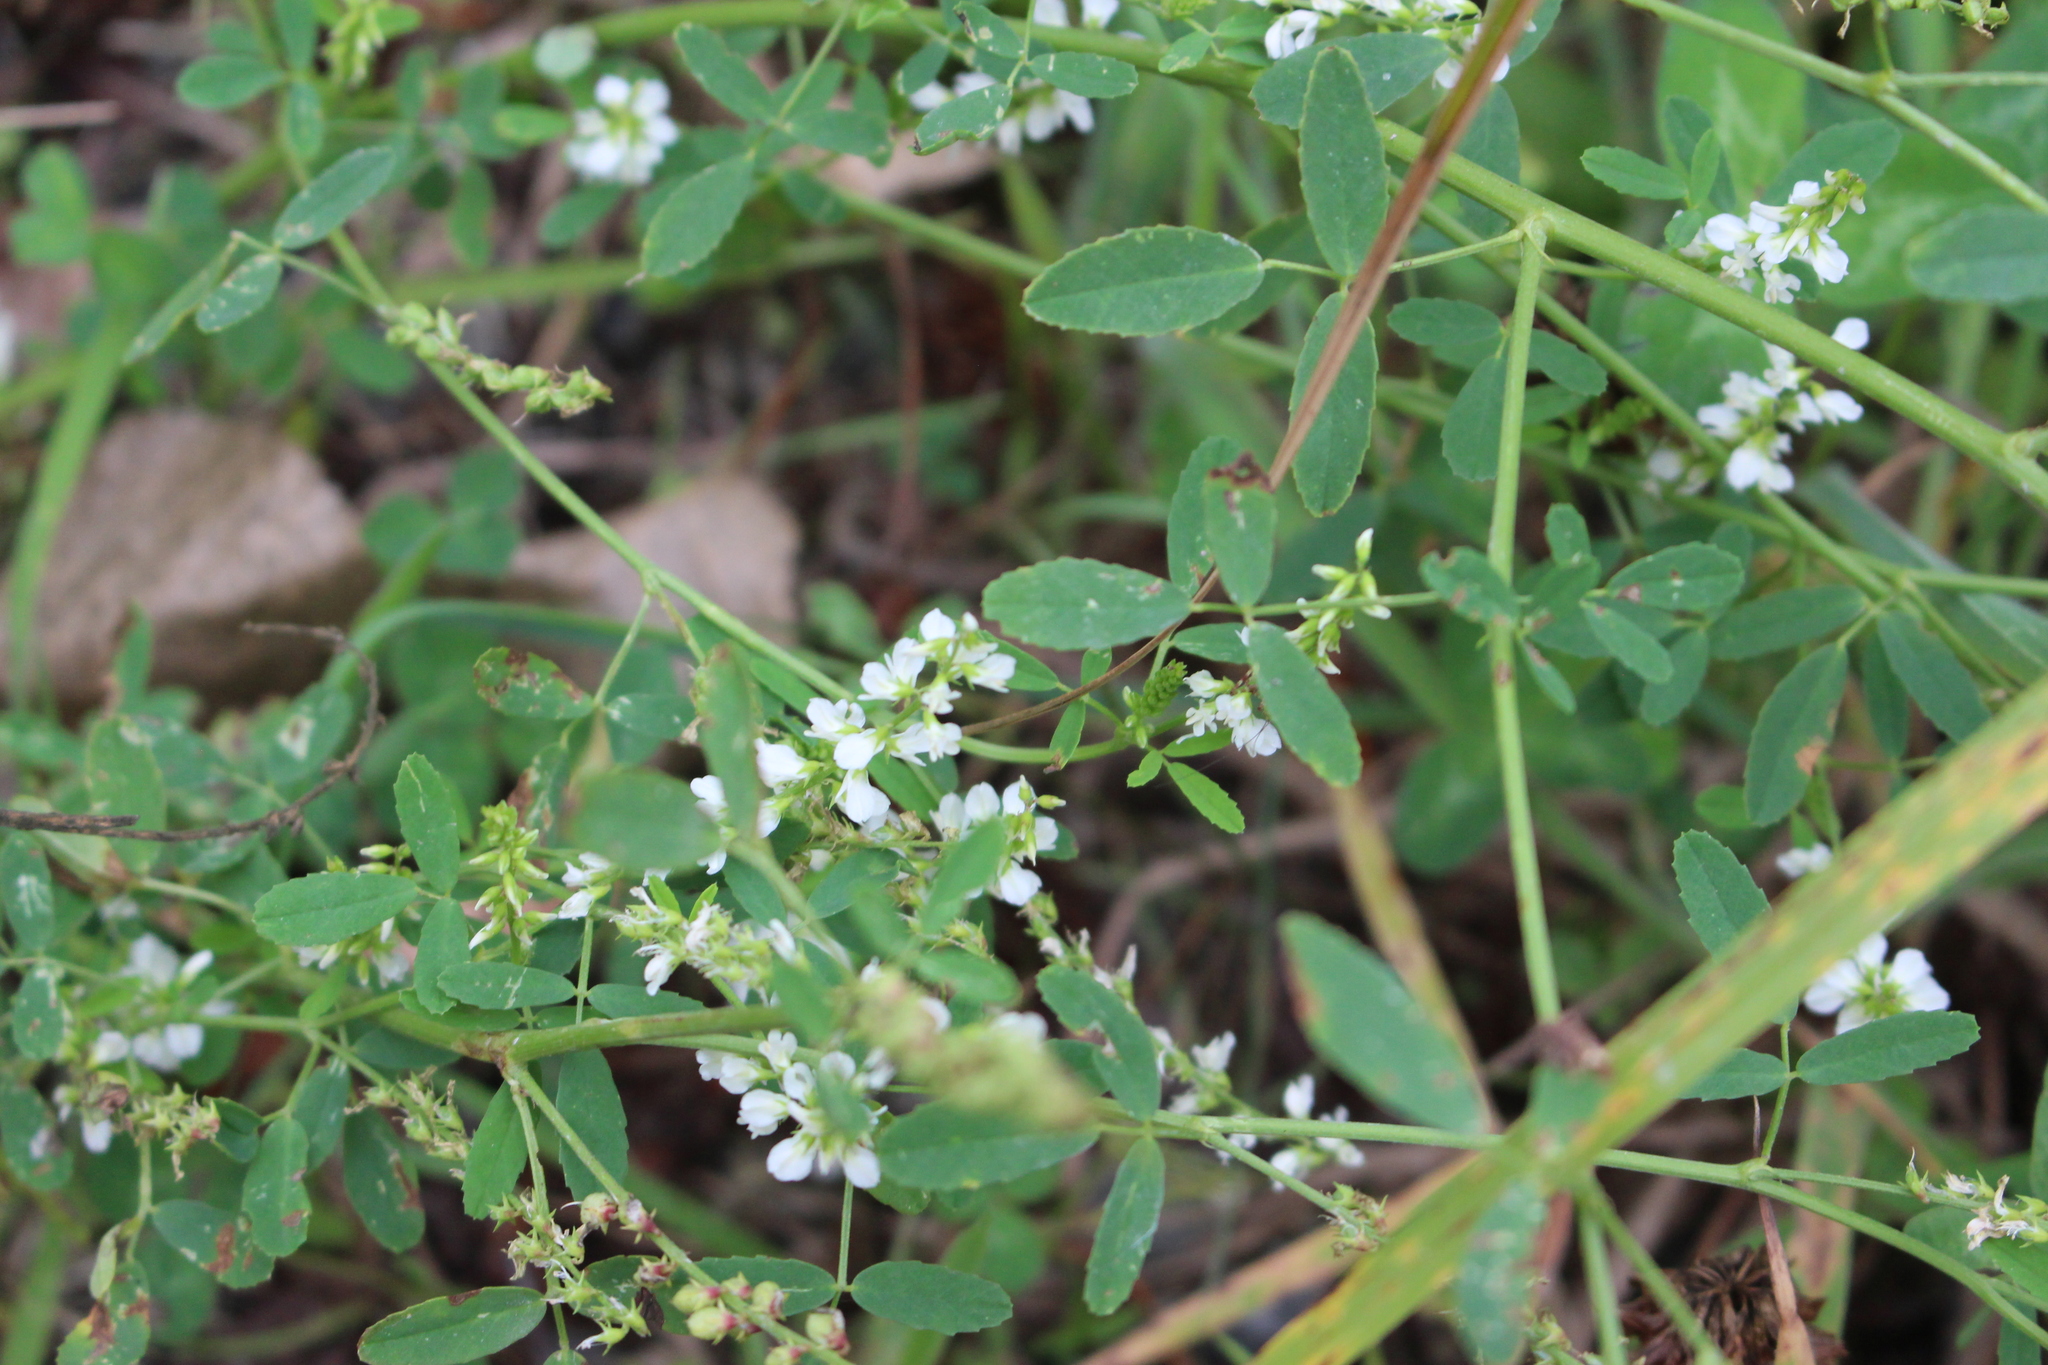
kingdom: Plantae
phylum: Tracheophyta
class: Magnoliopsida
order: Fabales
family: Fabaceae
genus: Melilotus
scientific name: Melilotus albus
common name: White melilot
